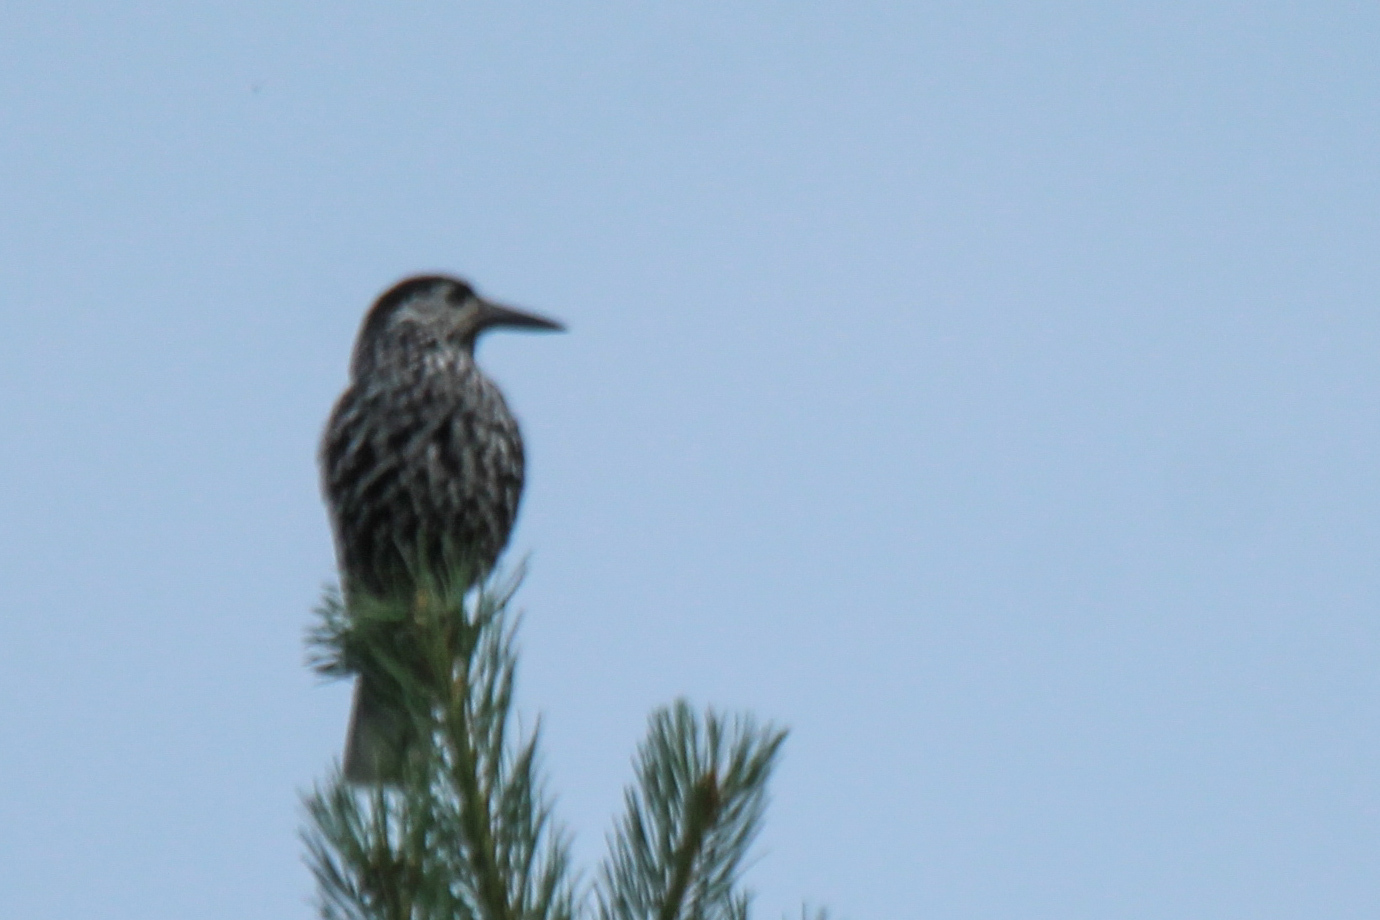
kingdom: Animalia
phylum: Chordata
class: Aves
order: Passeriformes
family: Corvidae
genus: Nucifraga
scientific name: Nucifraga caryocatactes
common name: Spotted nutcracker
